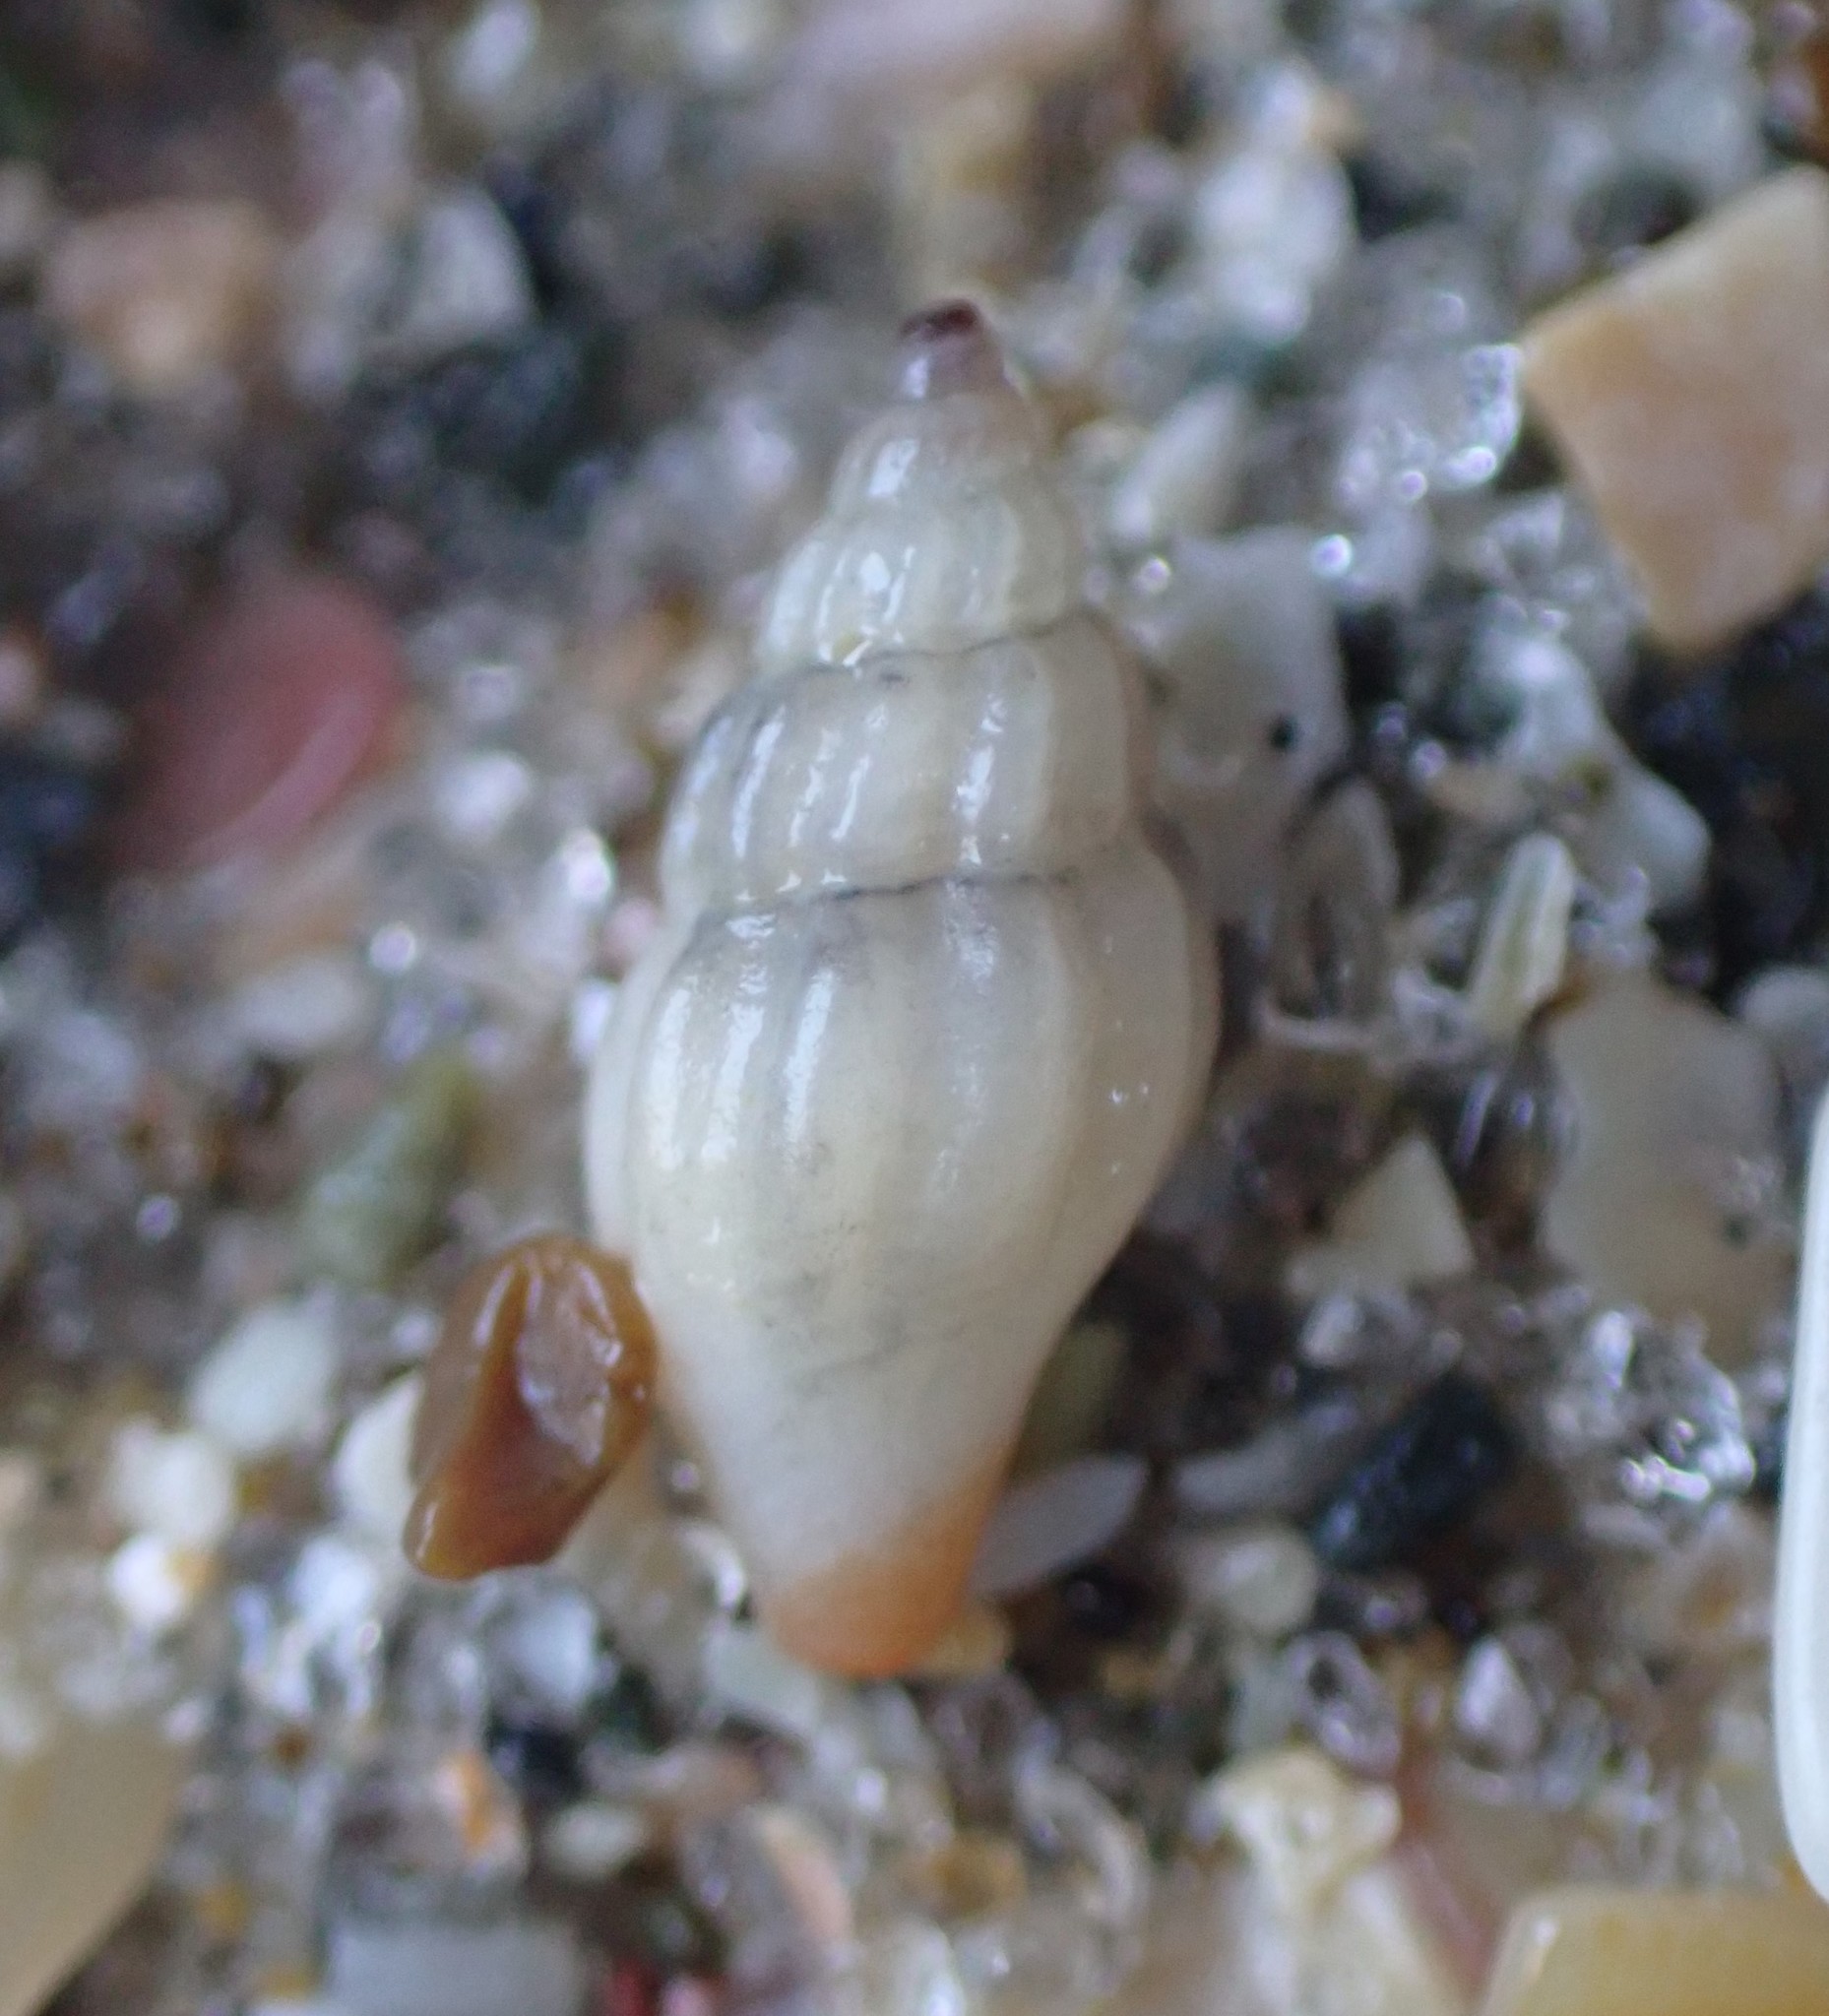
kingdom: Animalia
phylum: Mollusca
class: Gastropoda
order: Neogastropoda
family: Mangeliidae
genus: Neoguraleus
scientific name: Neoguraleus lyallensis
